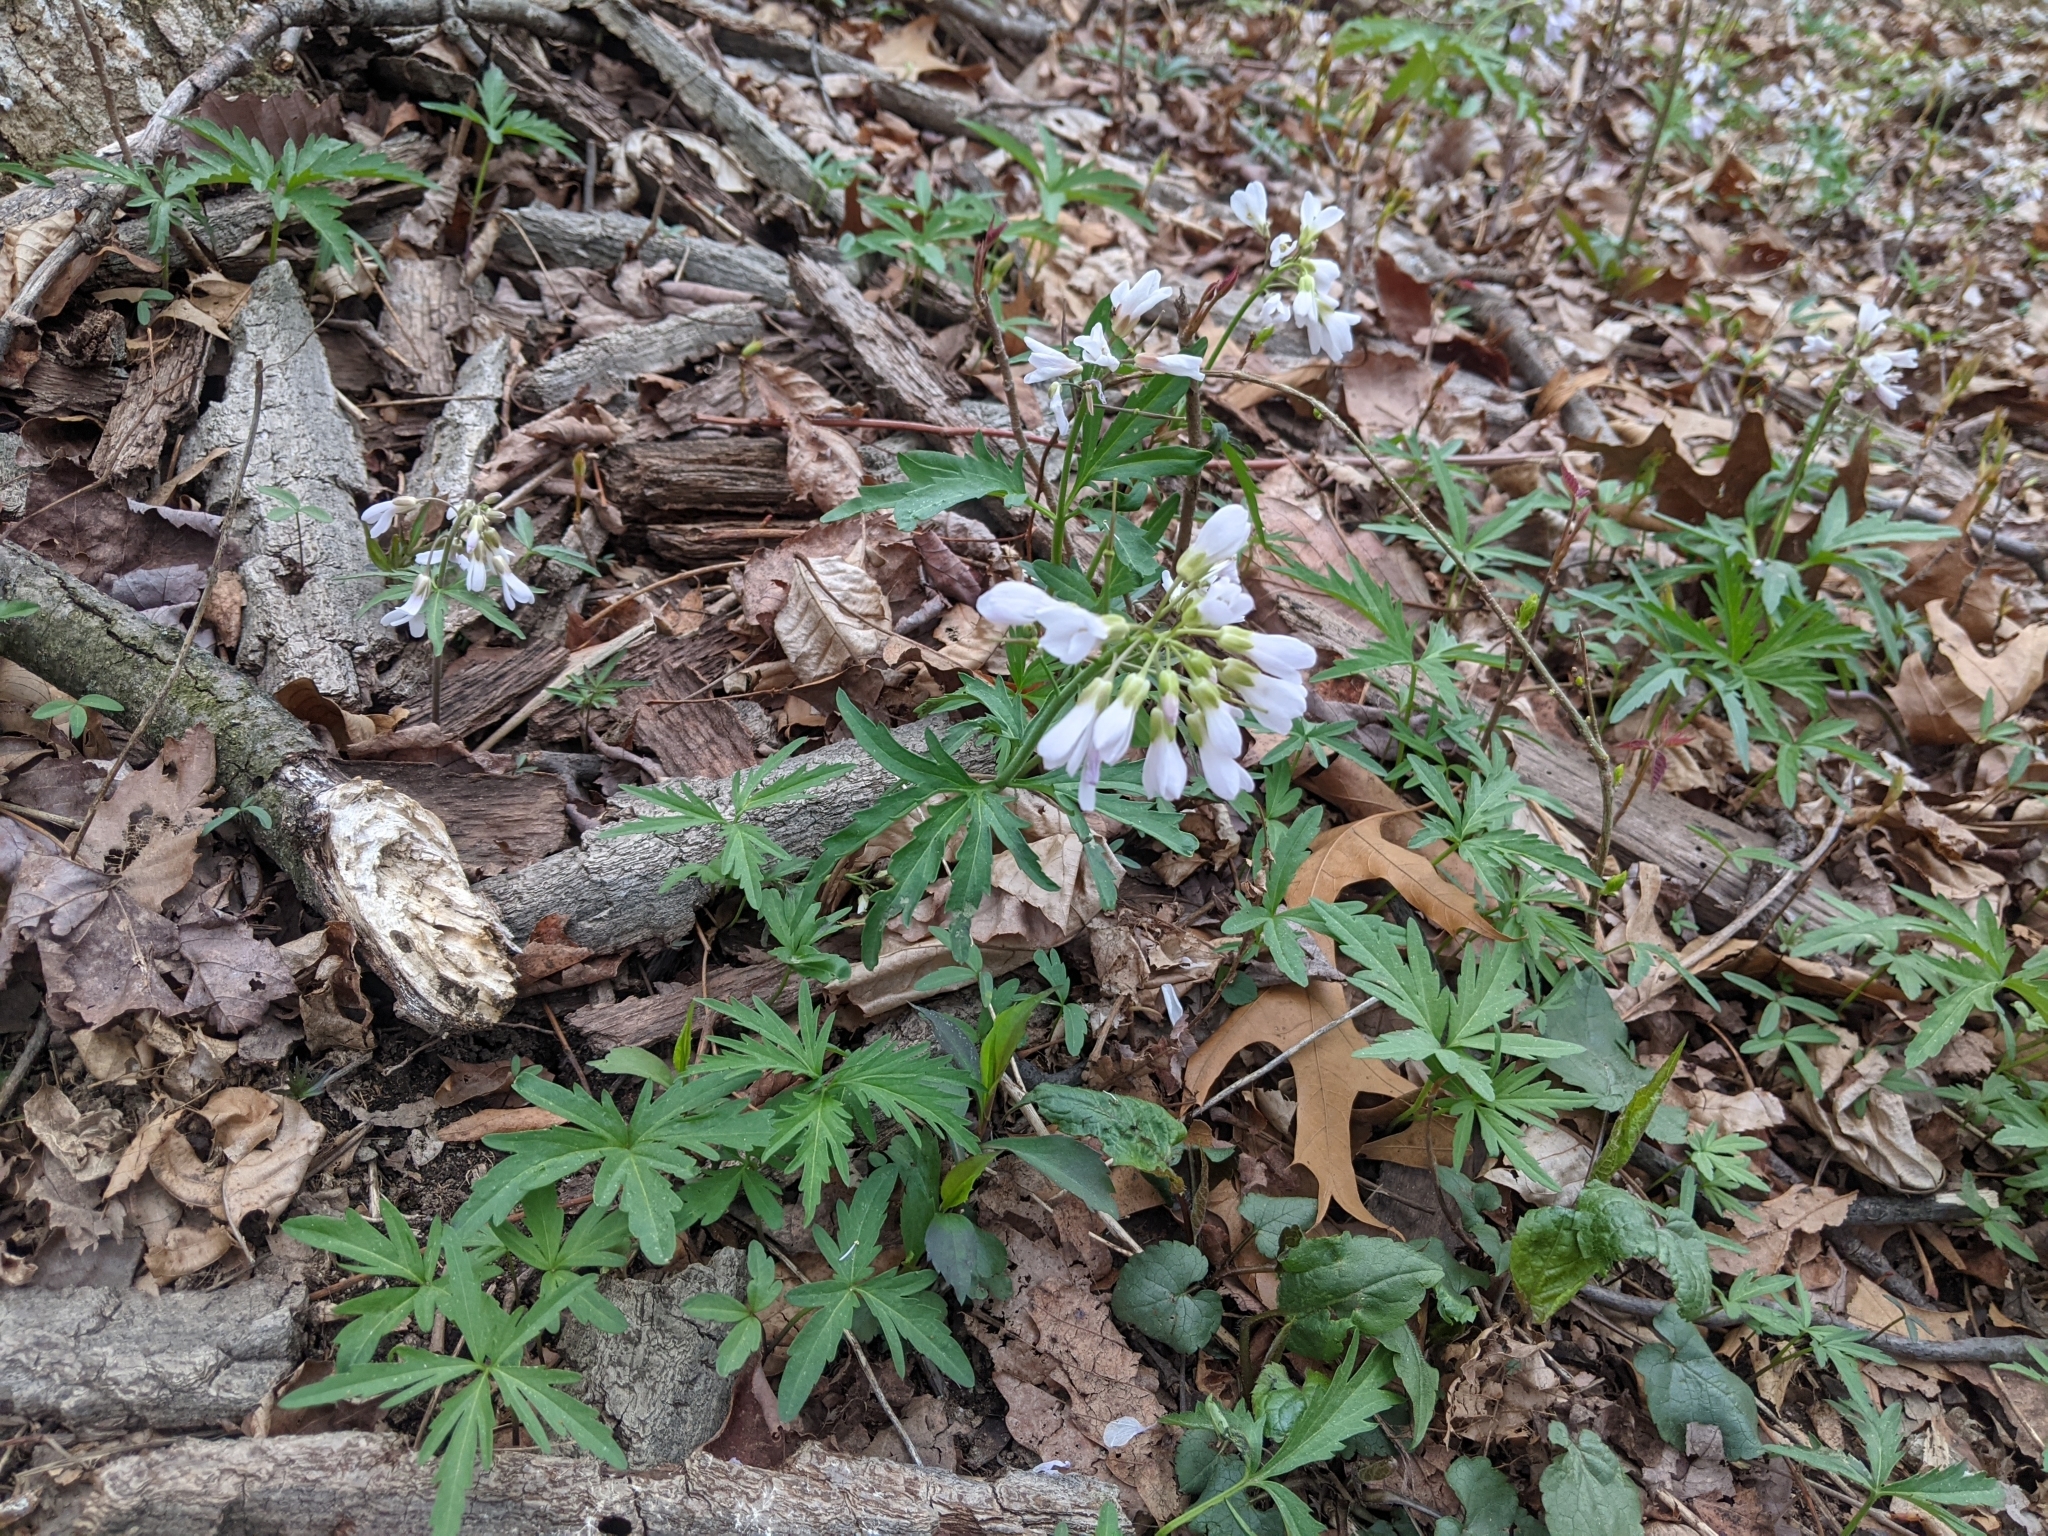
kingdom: Plantae
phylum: Tracheophyta
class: Magnoliopsida
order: Brassicales
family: Brassicaceae
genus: Cardamine
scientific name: Cardamine concatenata
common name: Cut-leaf toothcup
